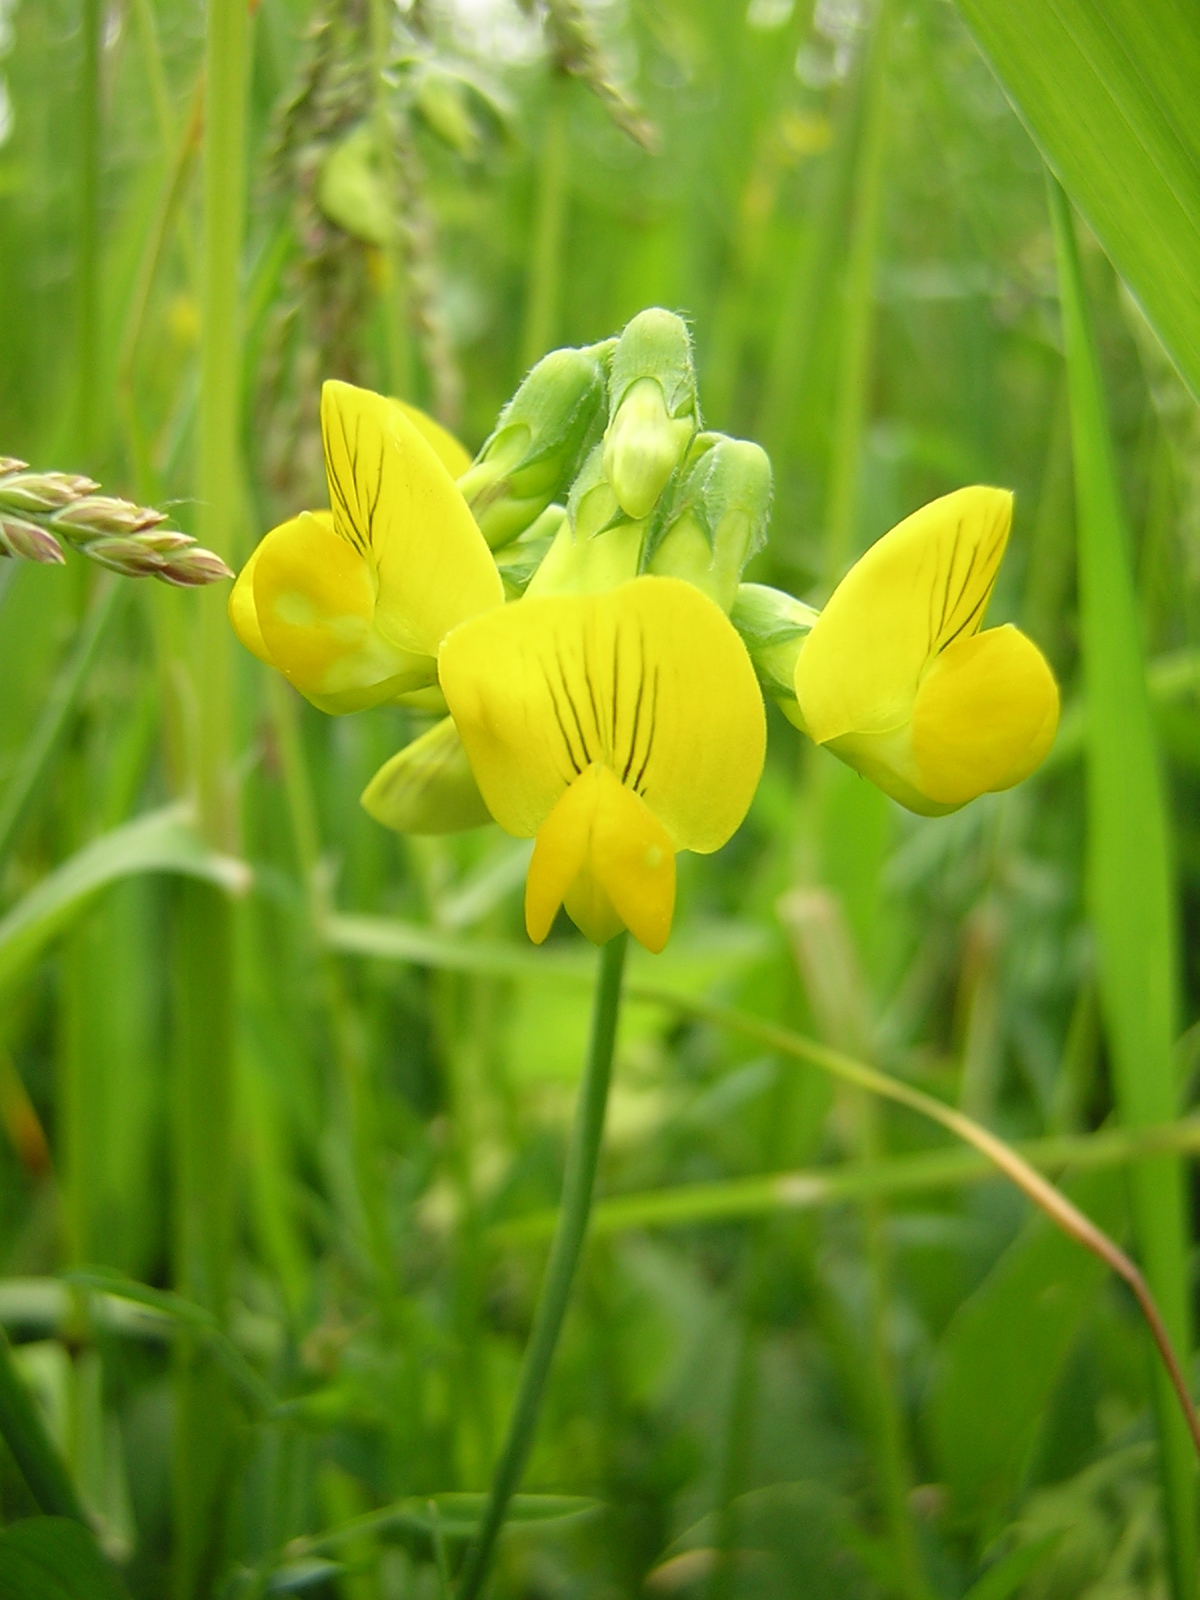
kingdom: Plantae
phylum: Tracheophyta
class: Magnoliopsida
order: Fabales
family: Fabaceae
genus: Lathyrus
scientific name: Lathyrus pratensis
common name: Meadow vetchling
